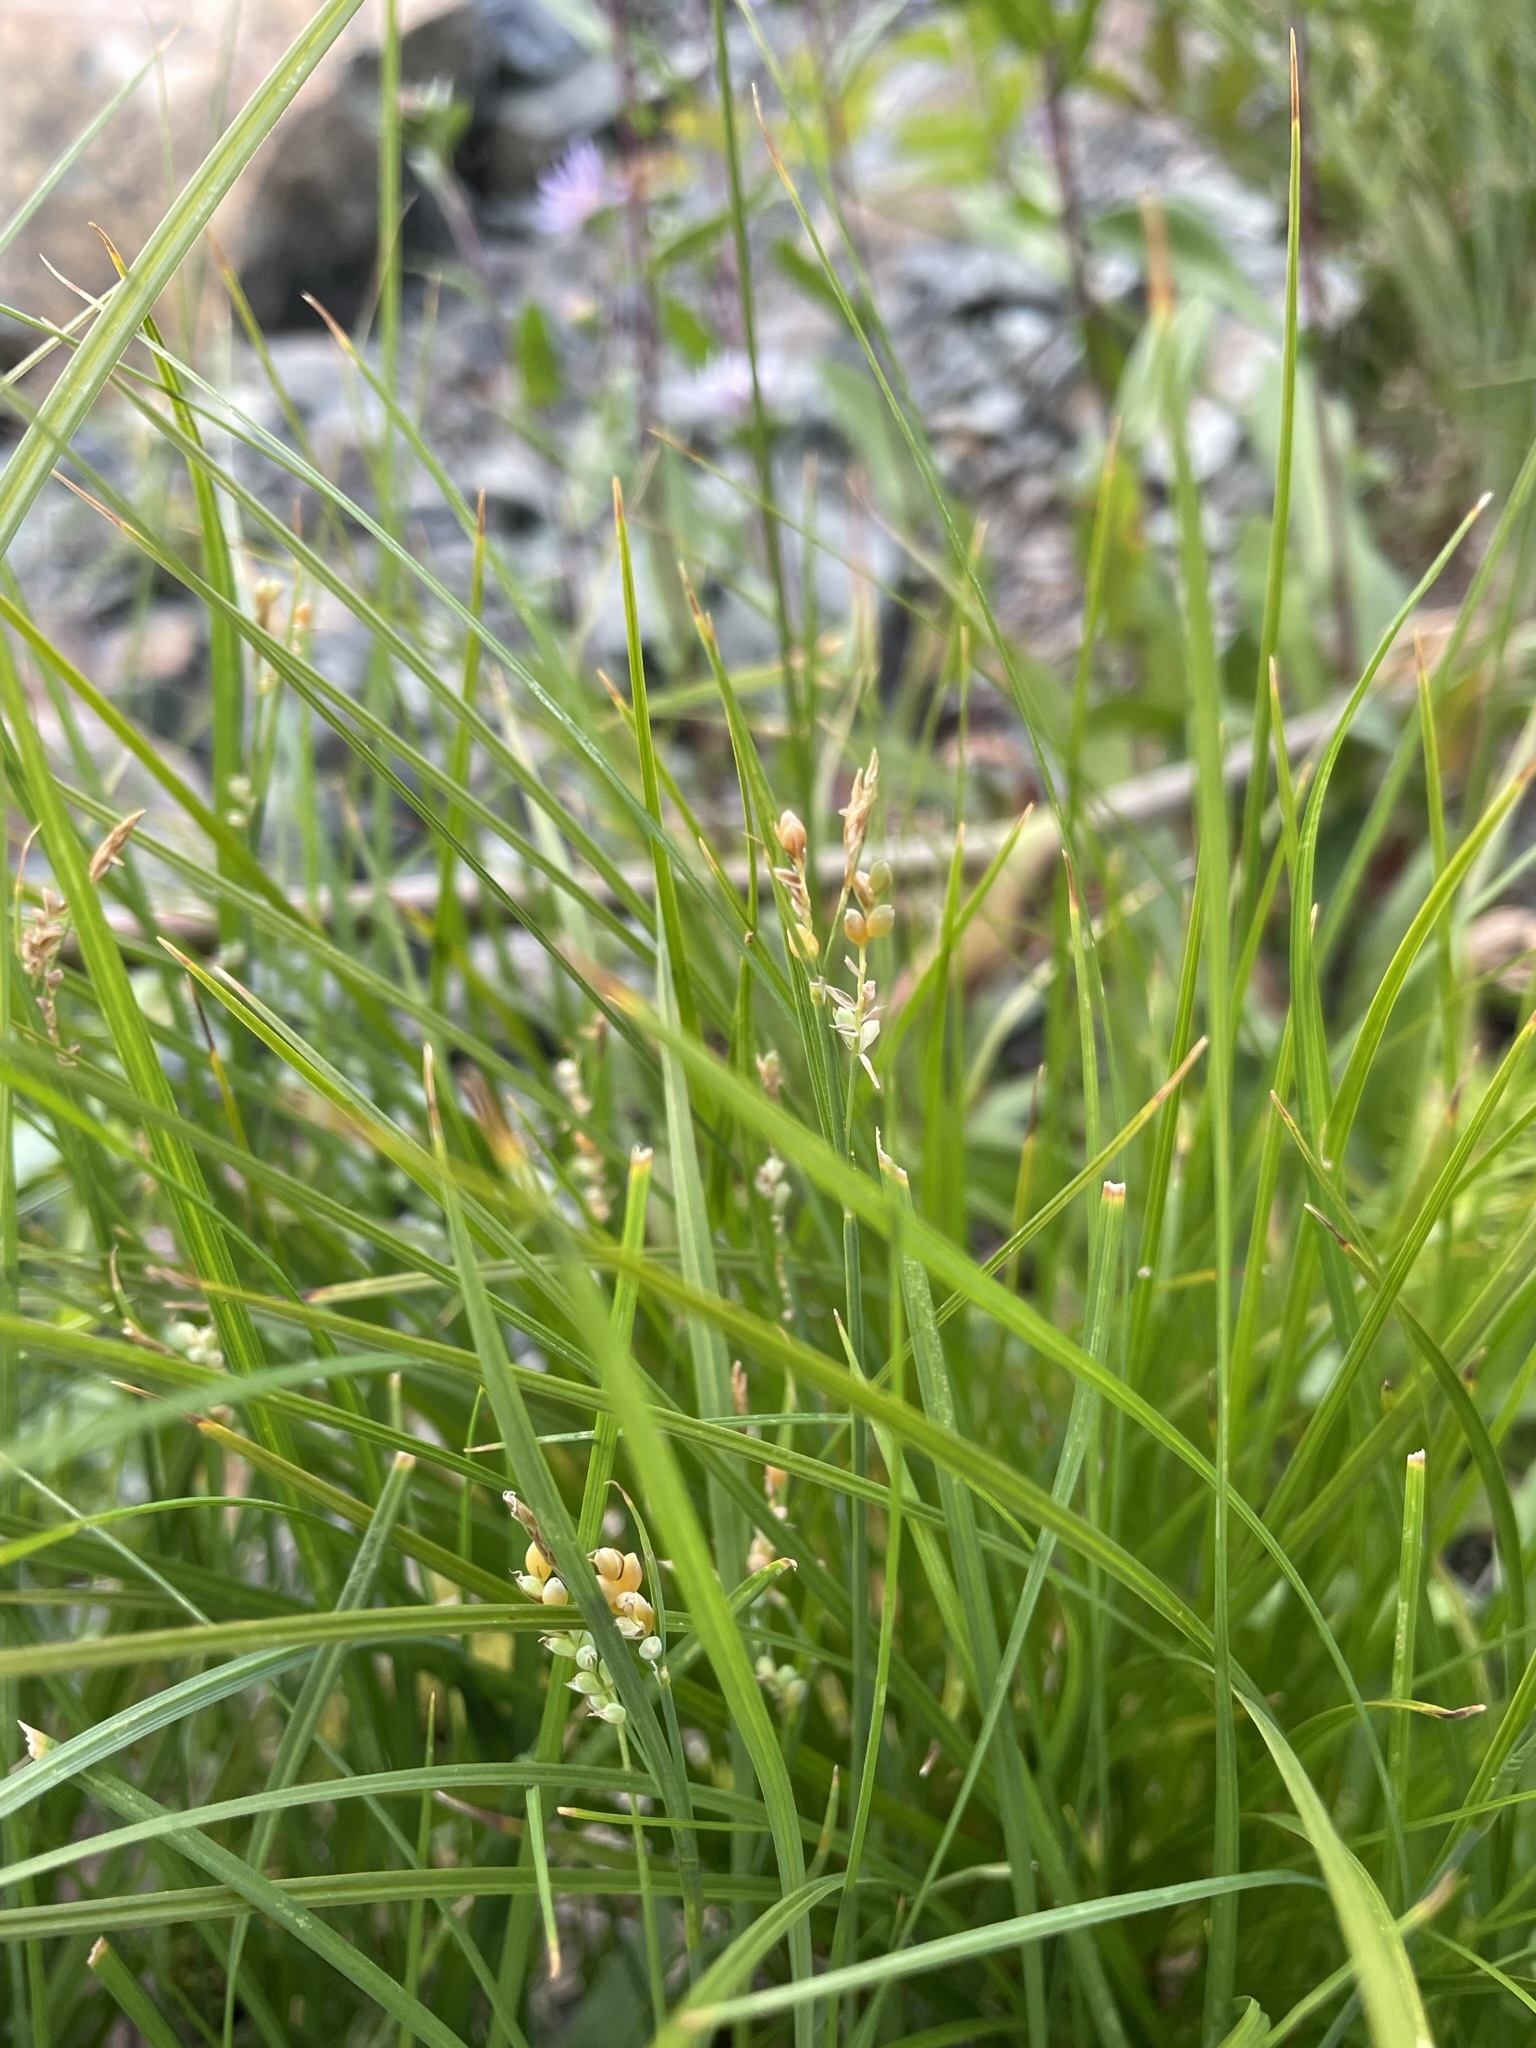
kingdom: Plantae
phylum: Tracheophyta
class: Liliopsida
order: Poales
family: Cyperaceae
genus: Carex
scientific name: Carex aurea
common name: Golden sedge
